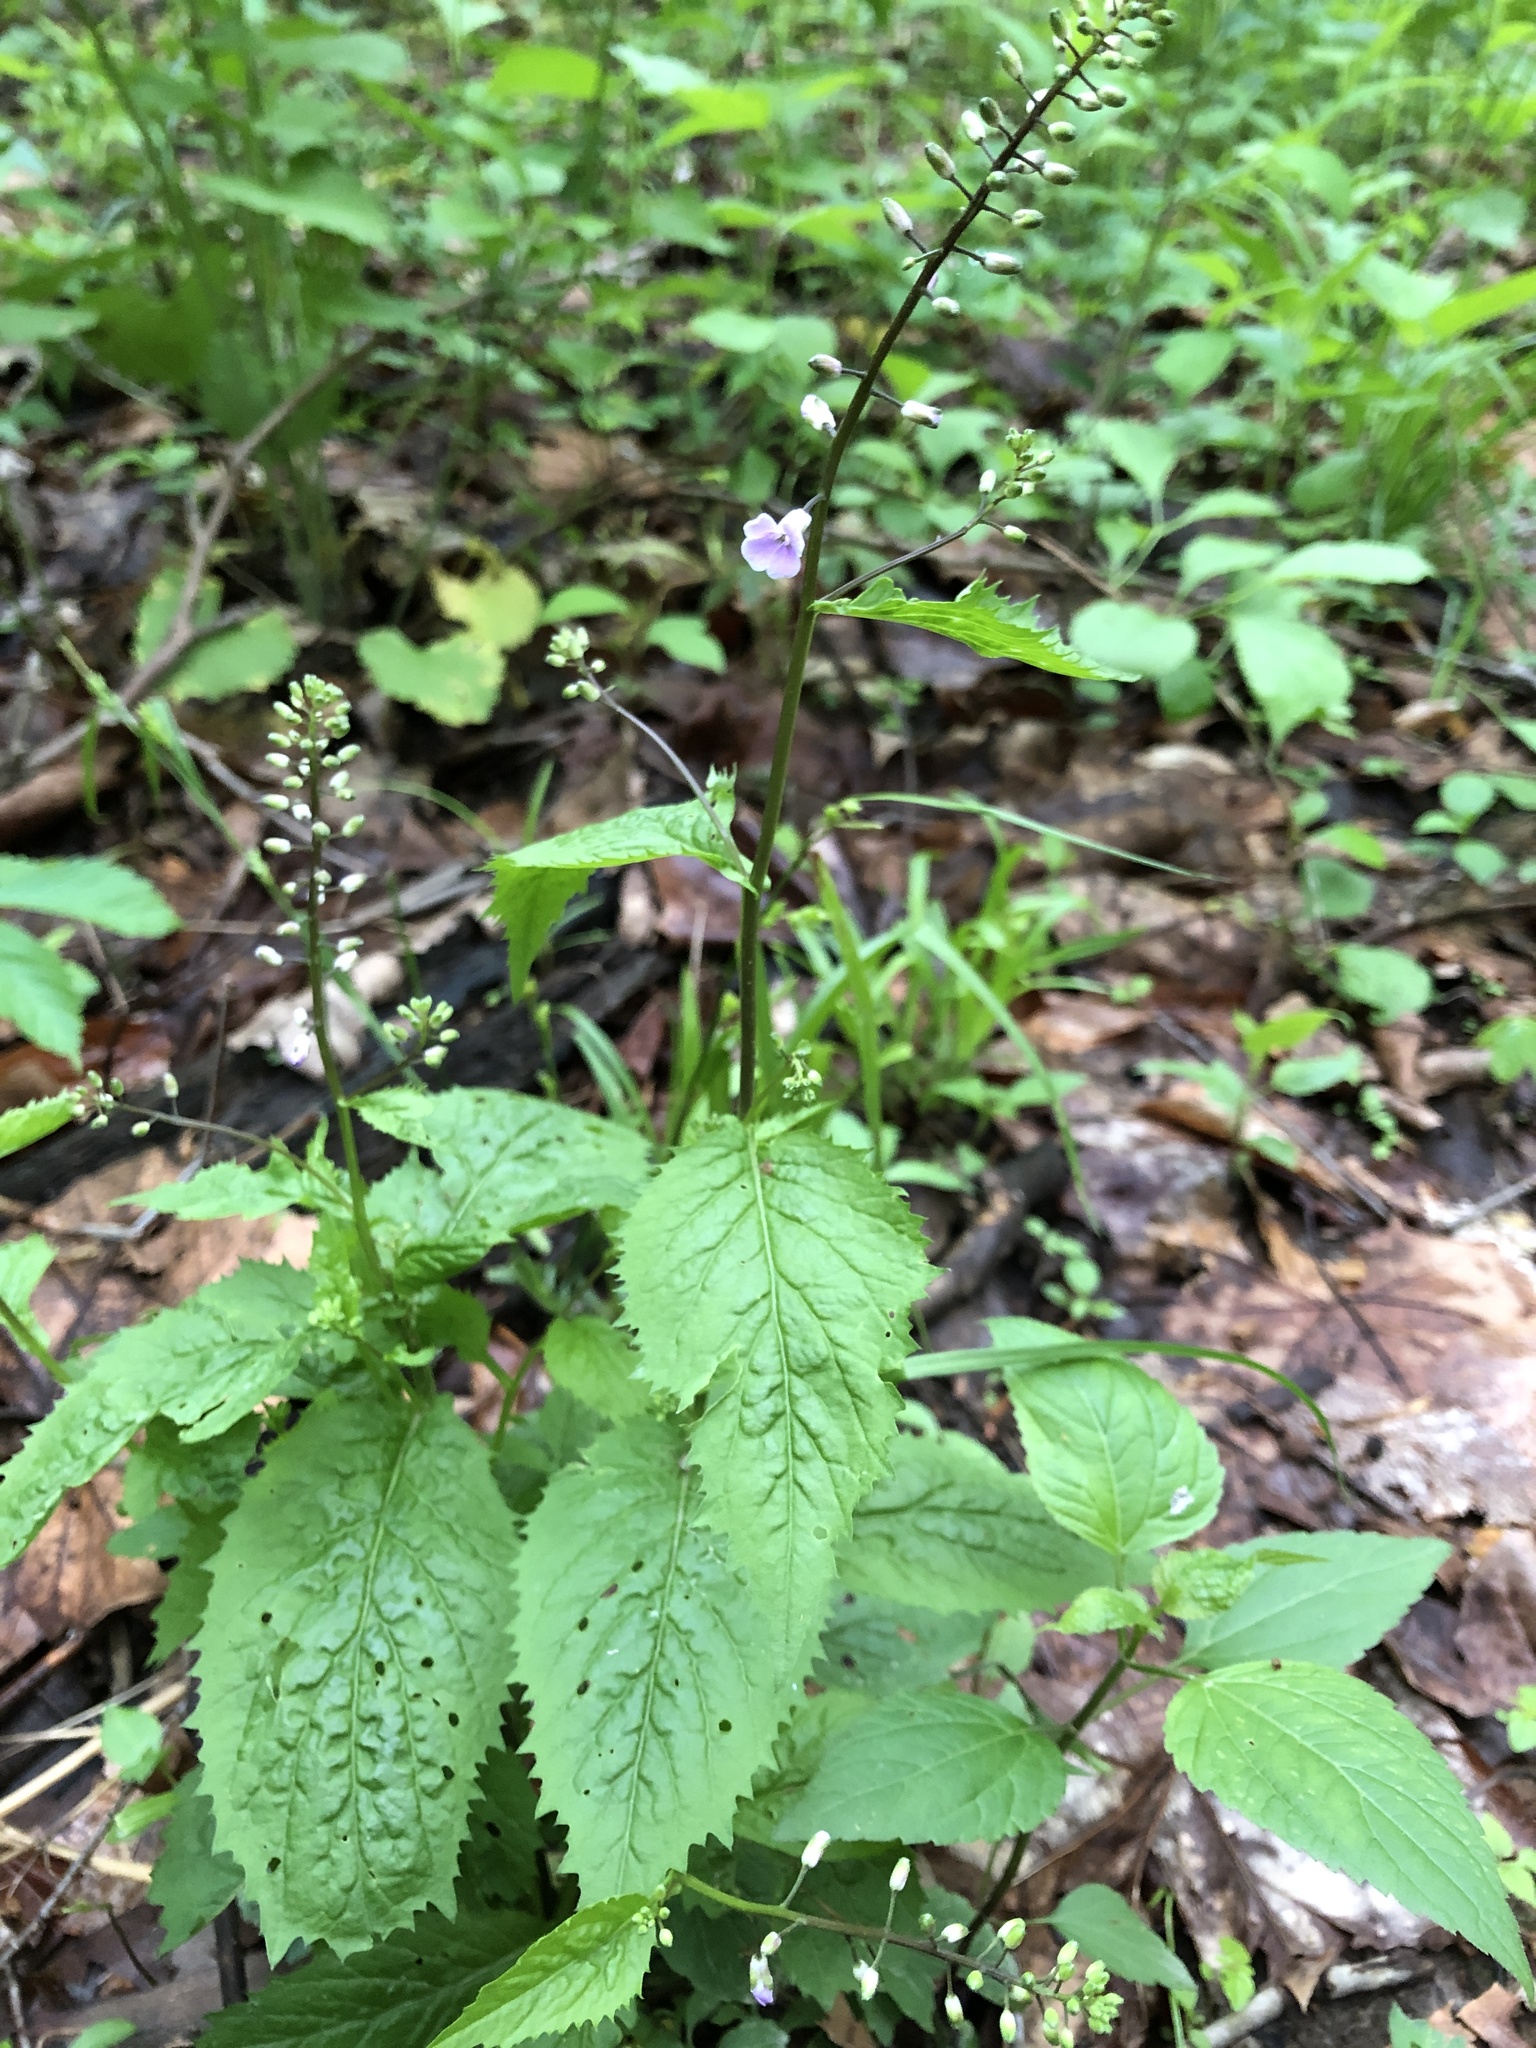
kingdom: Plantae
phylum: Tracheophyta
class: Magnoliopsida
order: Brassicales
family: Brassicaceae
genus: Iodanthus
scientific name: Iodanthus pinnatifidus
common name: Violet rocket
